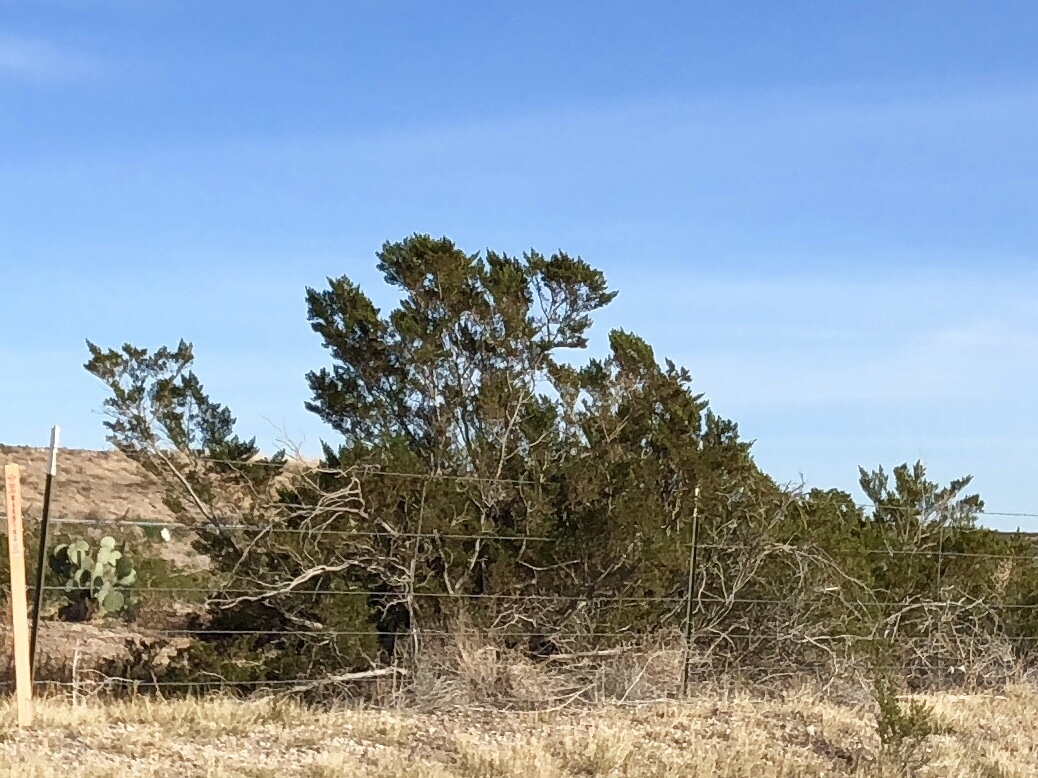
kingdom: Plantae
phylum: Tracheophyta
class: Magnoliopsida
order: Zygophyllales
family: Zygophyllaceae
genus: Larrea
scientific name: Larrea tridentata
